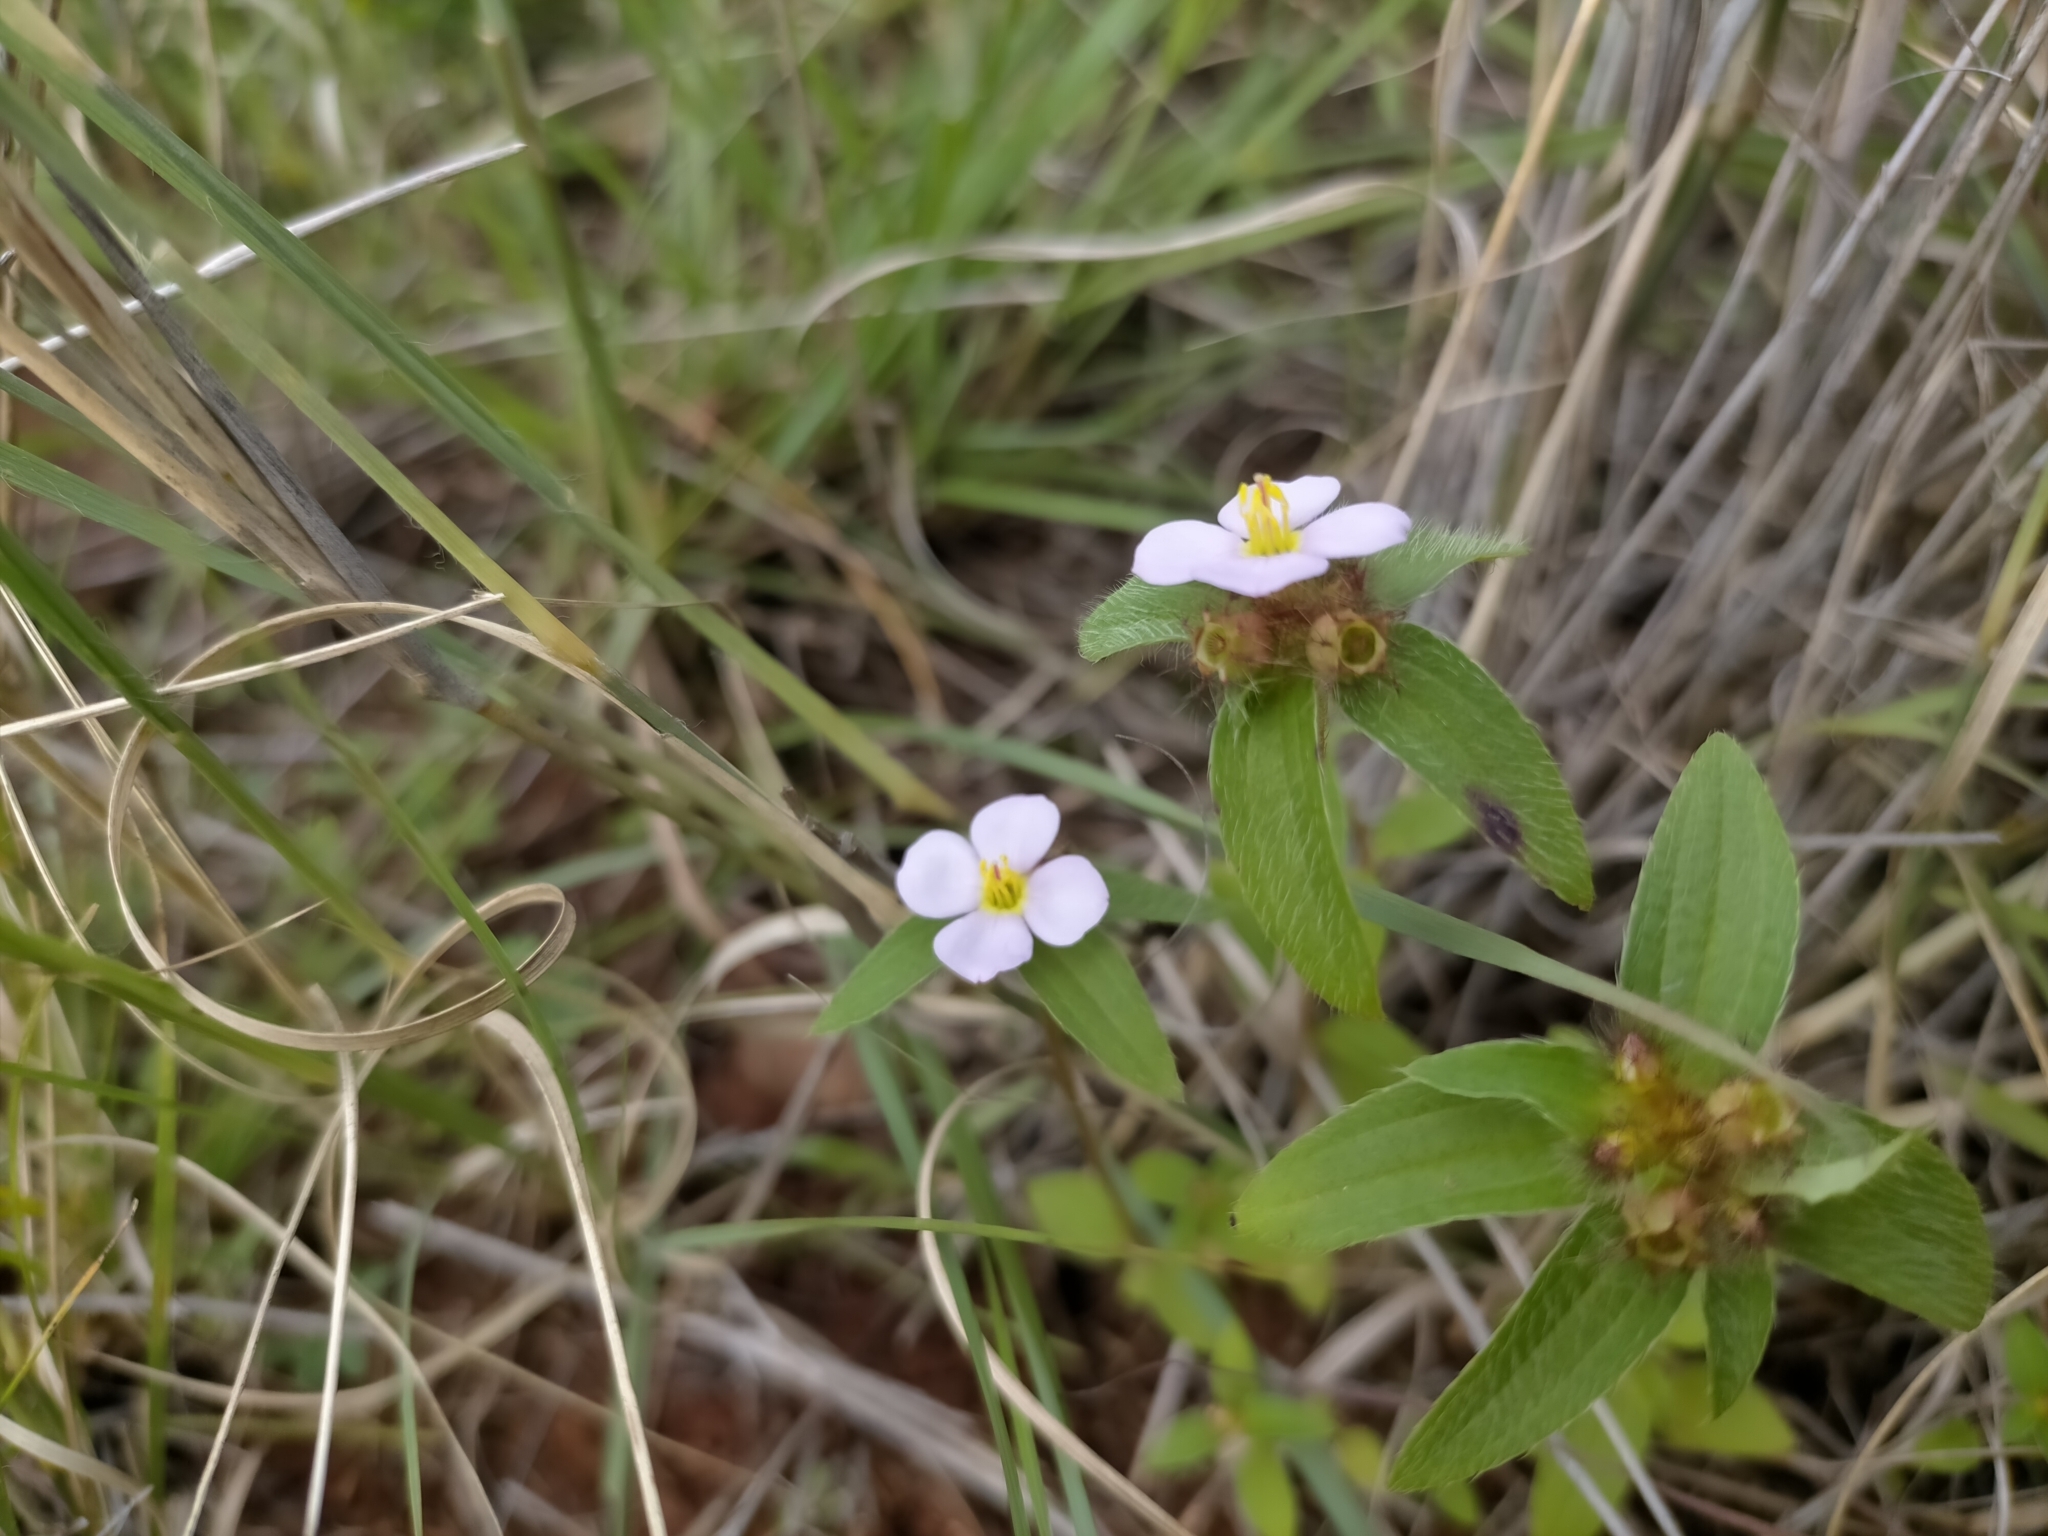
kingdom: Plantae
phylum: Tracheophyta
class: Magnoliopsida
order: Myrtales
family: Melastomataceae
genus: Antherotoma
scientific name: Antherotoma naudinii
